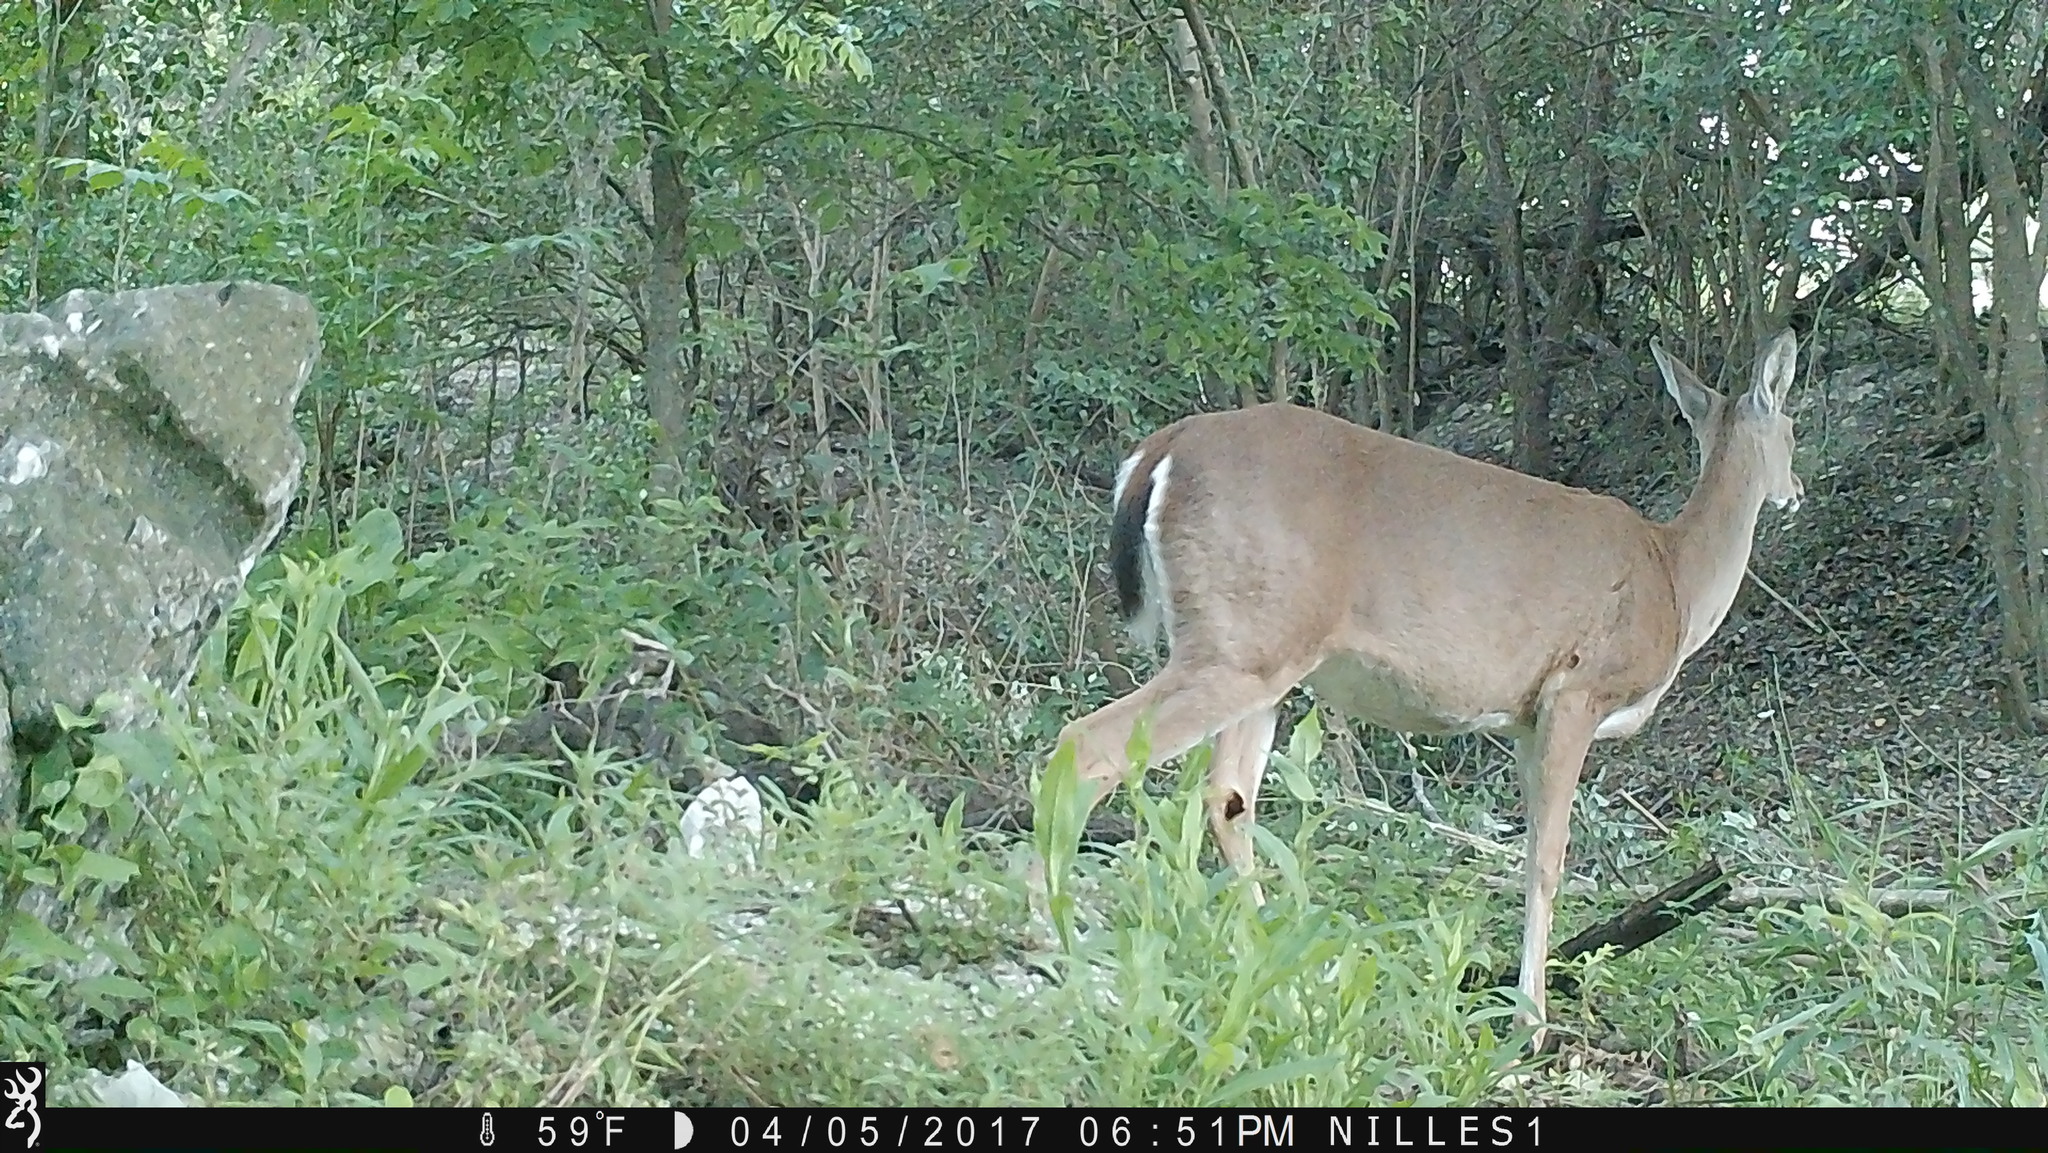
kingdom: Animalia
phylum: Chordata
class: Mammalia
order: Artiodactyla
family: Cervidae
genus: Odocoileus
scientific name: Odocoileus virginianus
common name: White-tailed deer
